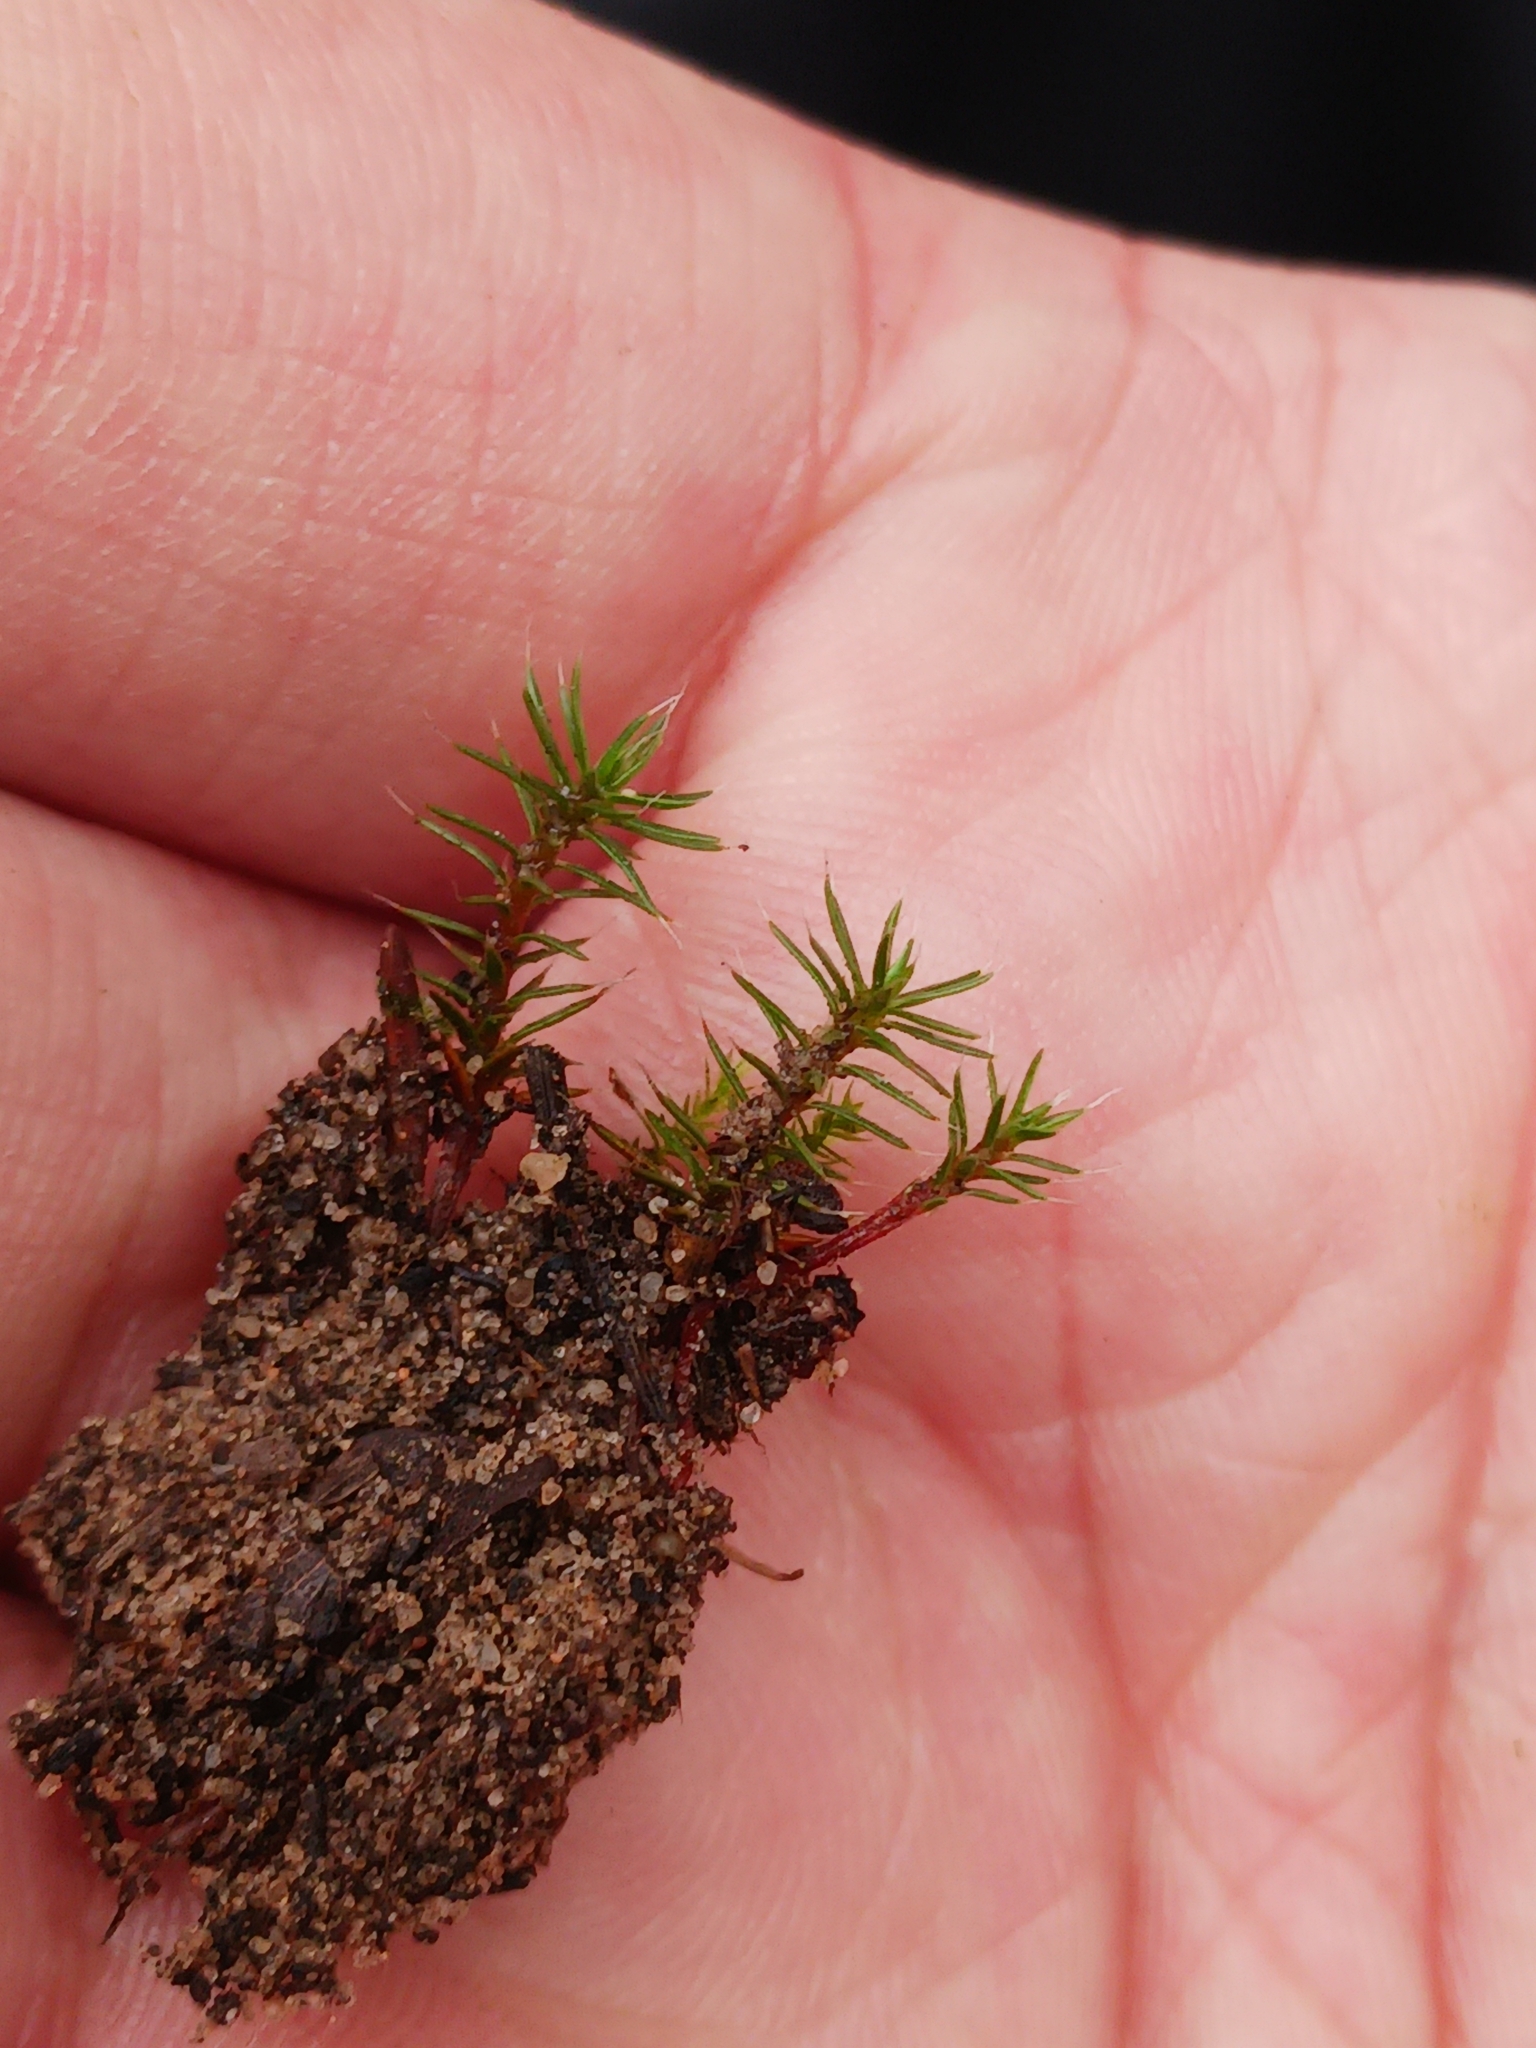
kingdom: Plantae
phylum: Bryophyta
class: Polytrichopsida
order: Polytrichales
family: Polytrichaceae
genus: Polytrichum
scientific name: Polytrichum piliferum
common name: Bristly haircap
